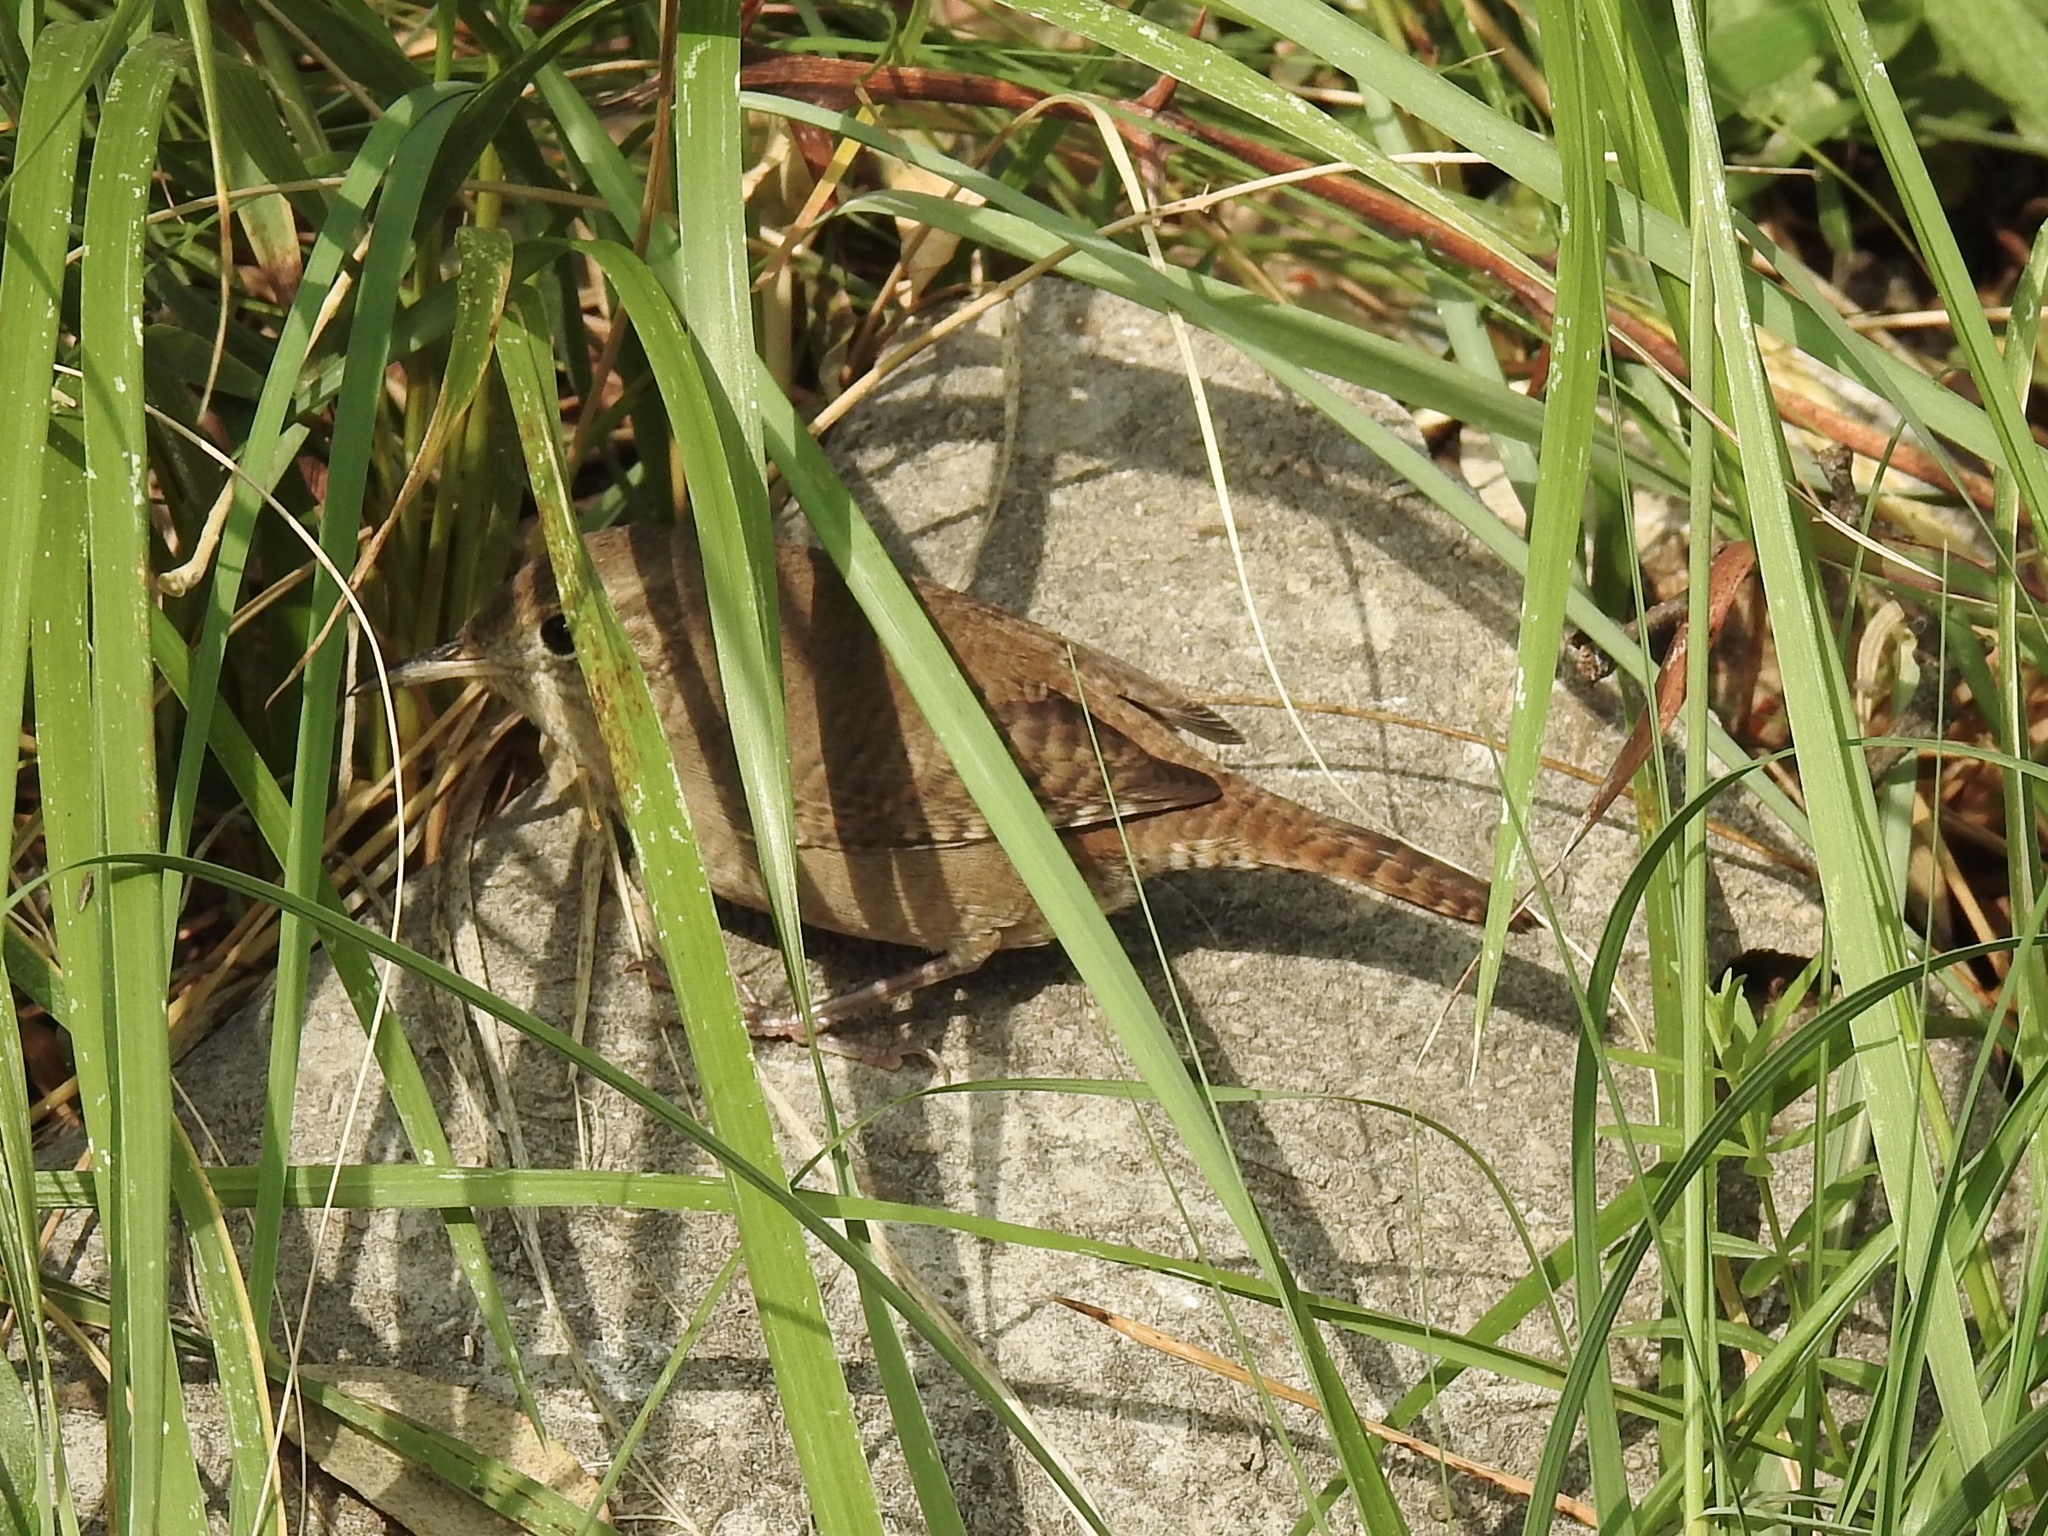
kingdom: Animalia
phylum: Chordata
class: Aves
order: Passeriformes
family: Troglodytidae
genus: Troglodytes
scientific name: Troglodytes aedon
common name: House wren
